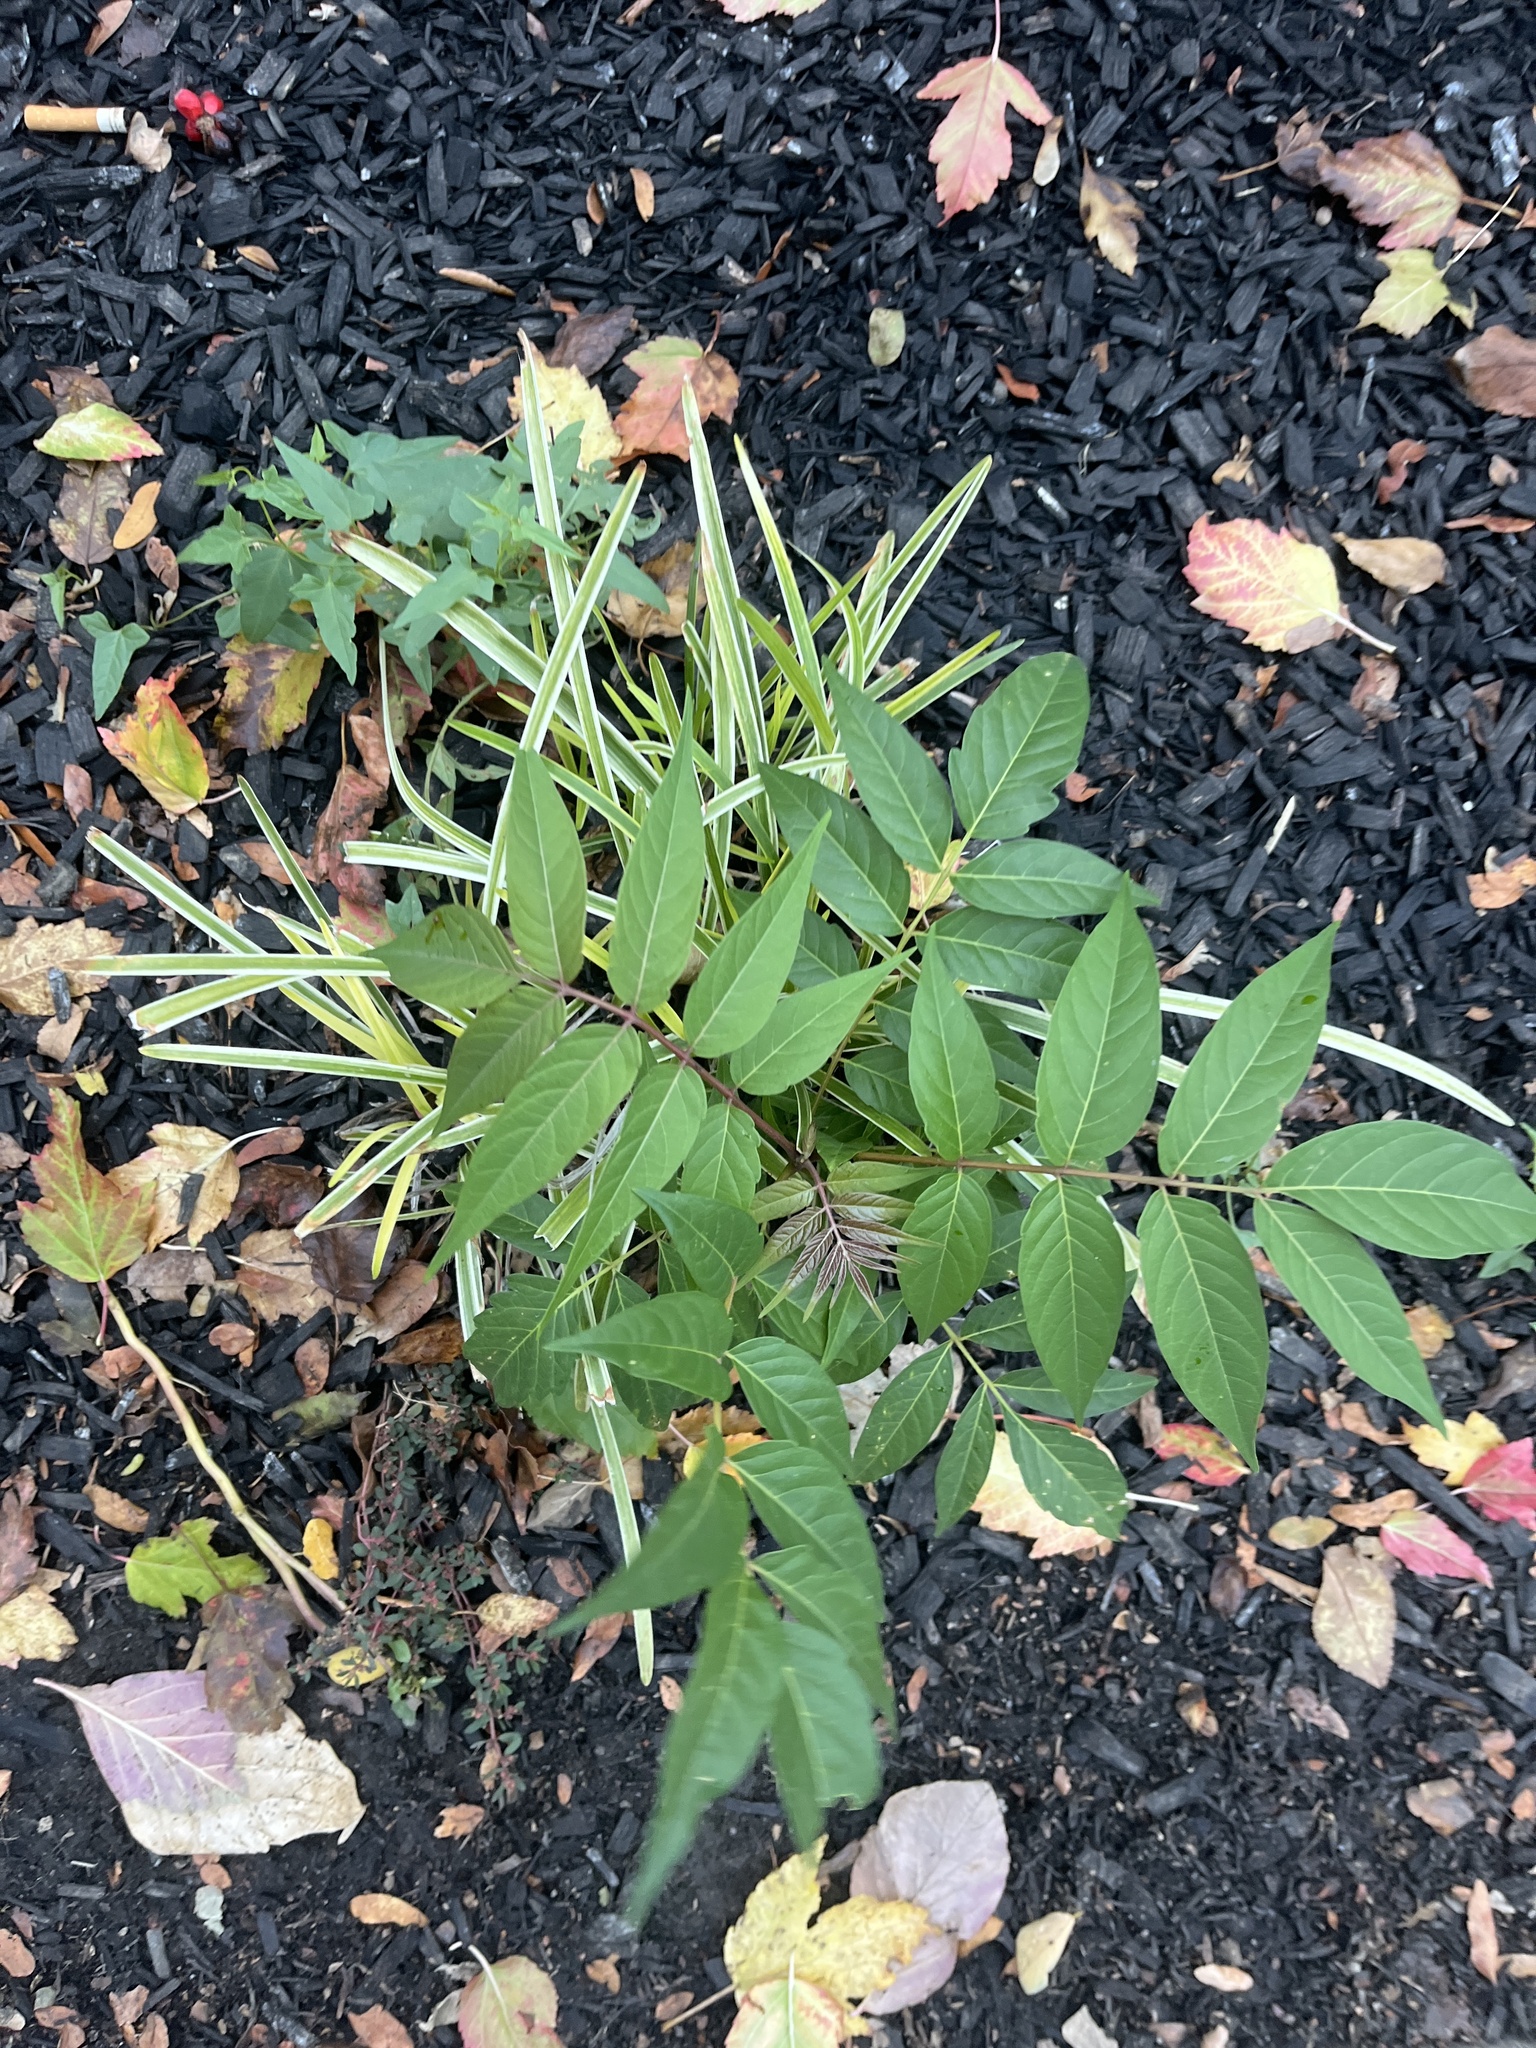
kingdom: Plantae
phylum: Tracheophyta
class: Magnoliopsida
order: Sapindales
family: Simaroubaceae
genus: Ailanthus
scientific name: Ailanthus altissima
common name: Tree-of-heaven
